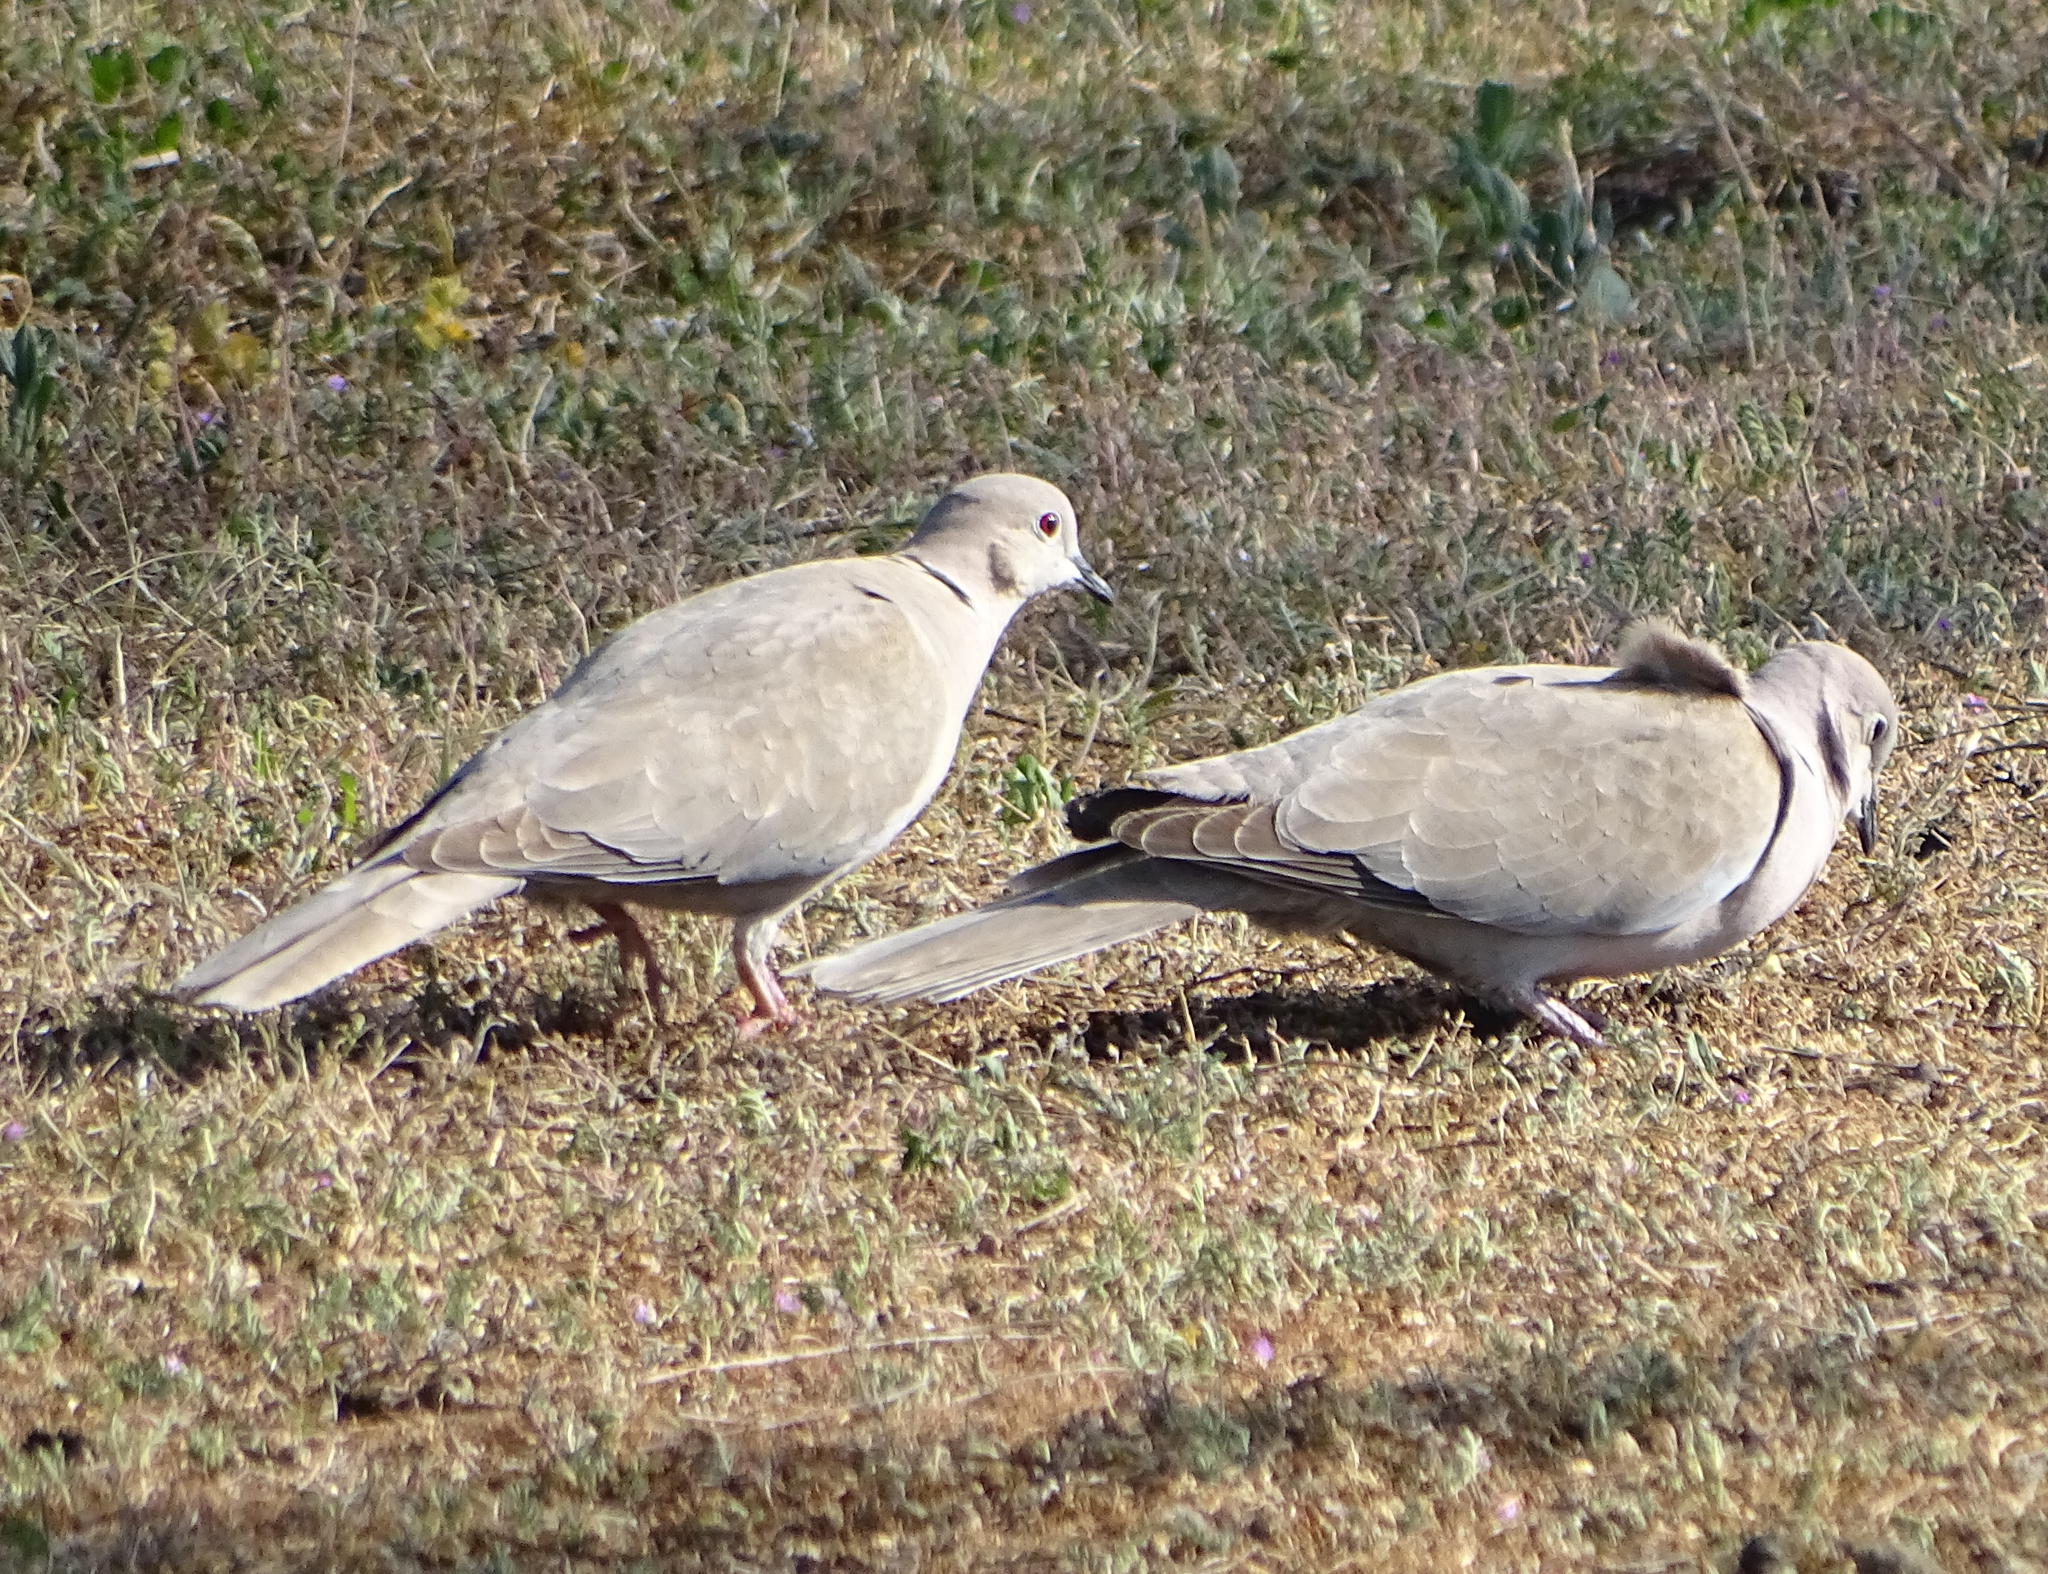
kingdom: Animalia
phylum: Chordata
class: Aves
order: Columbiformes
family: Columbidae
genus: Streptopelia
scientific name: Streptopelia decaocto
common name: Eurasian collared dove
